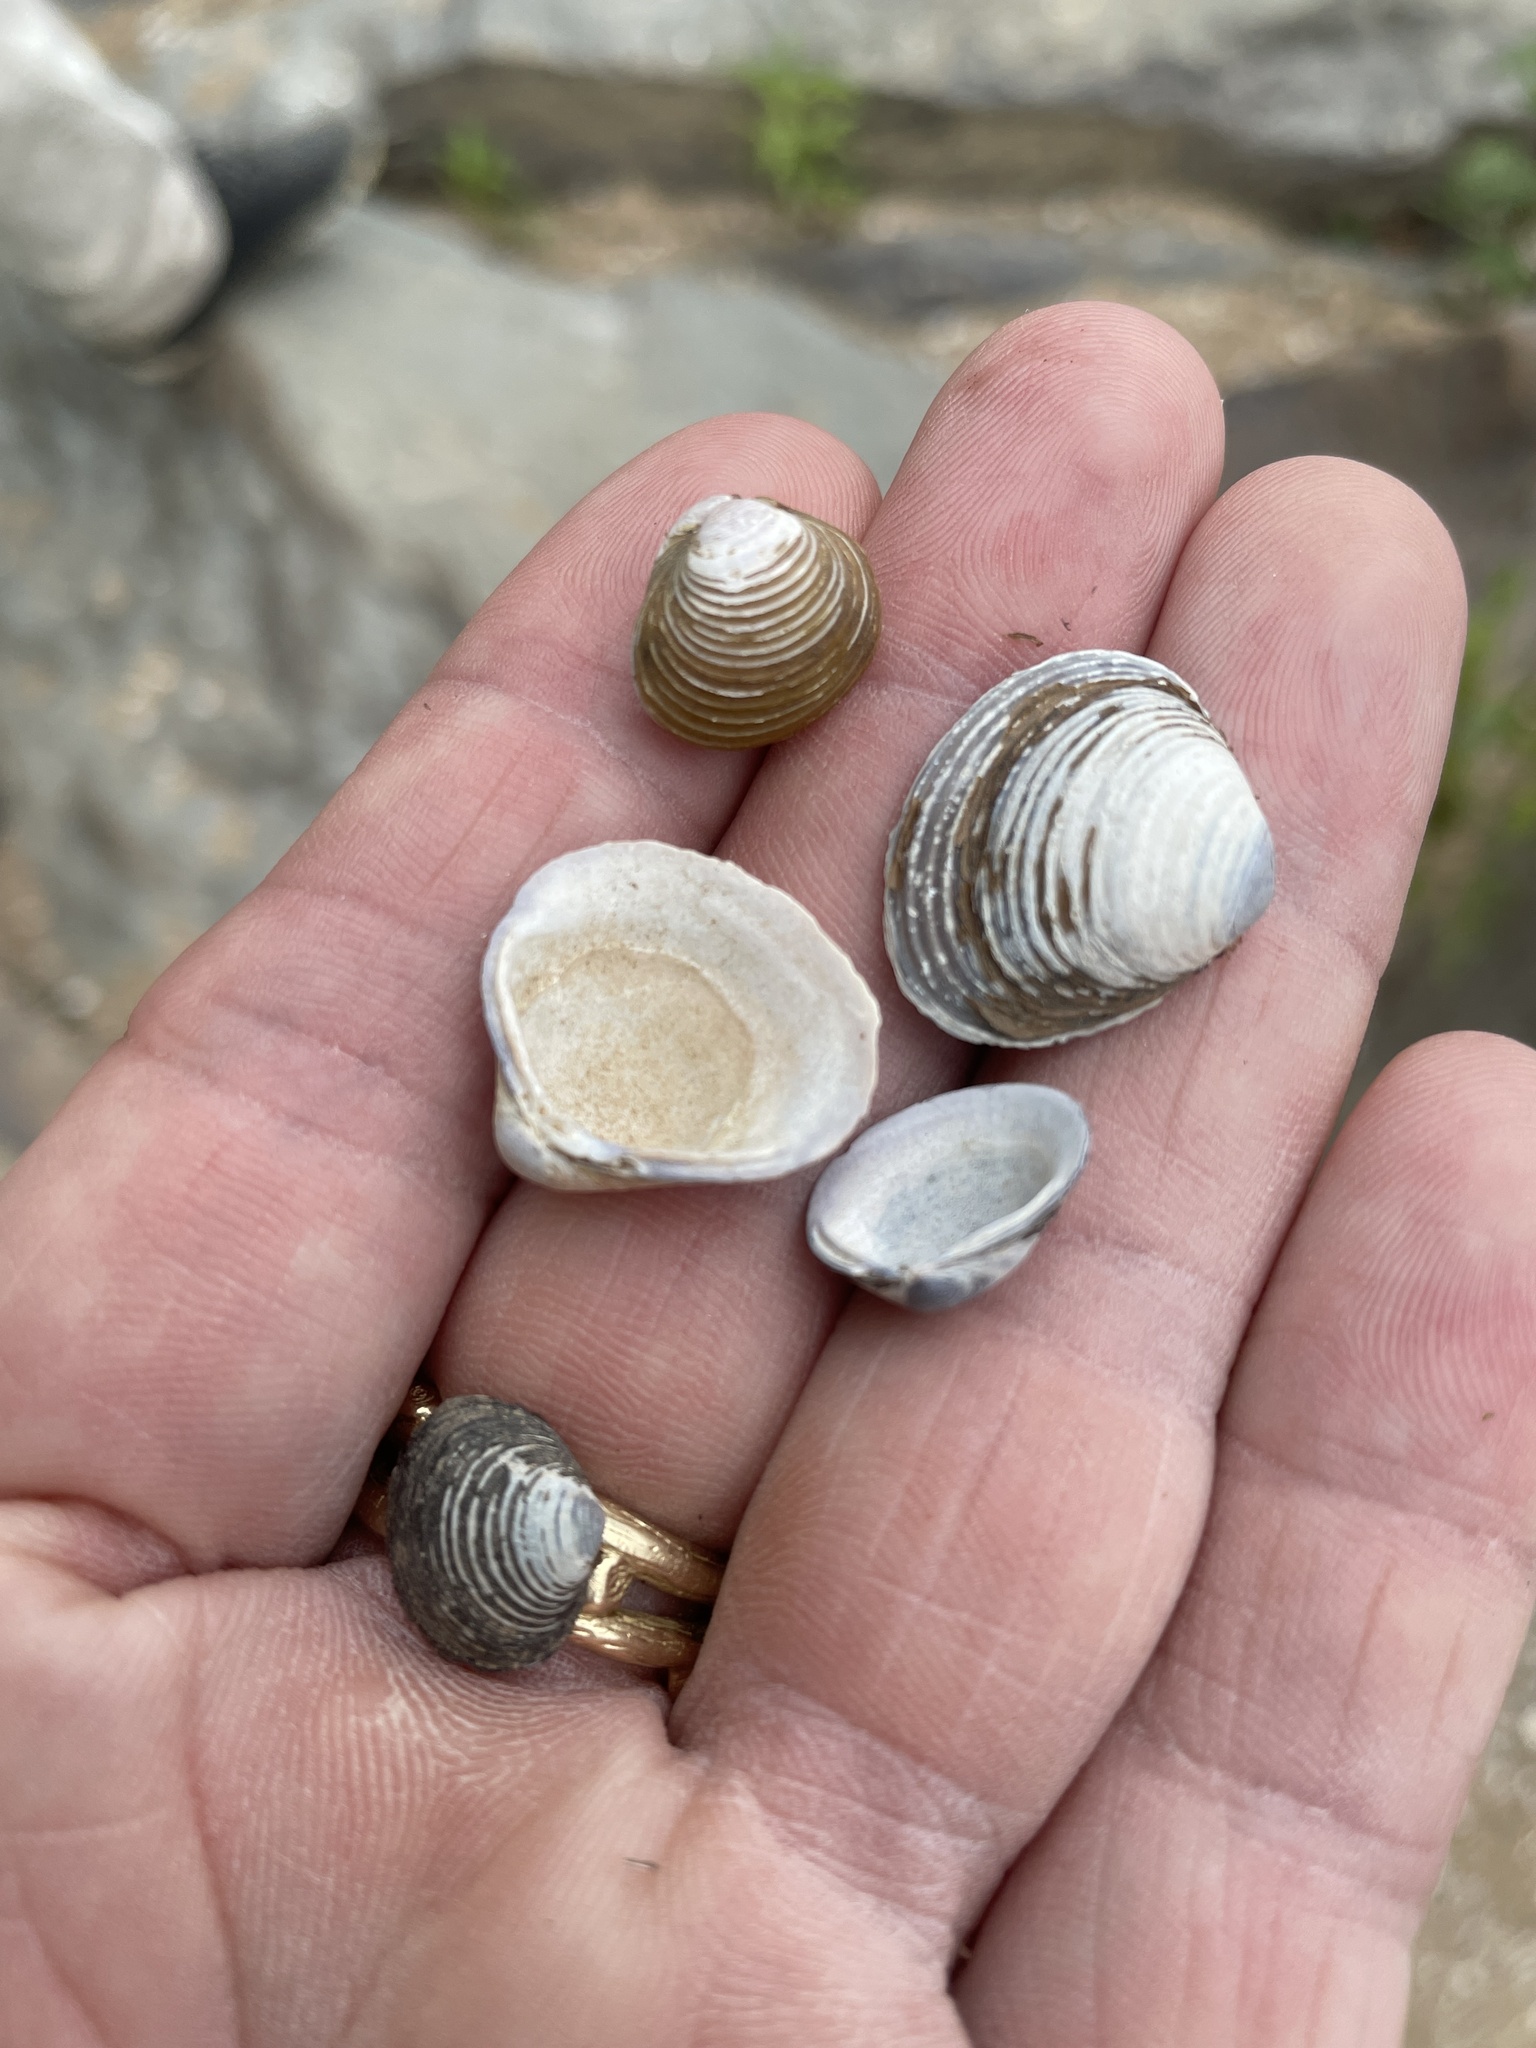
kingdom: Animalia
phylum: Mollusca
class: Bivalvia
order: Venerida
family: Cyrenidae
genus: Corbicula
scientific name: Corbicula fluminea
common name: Asian clam
